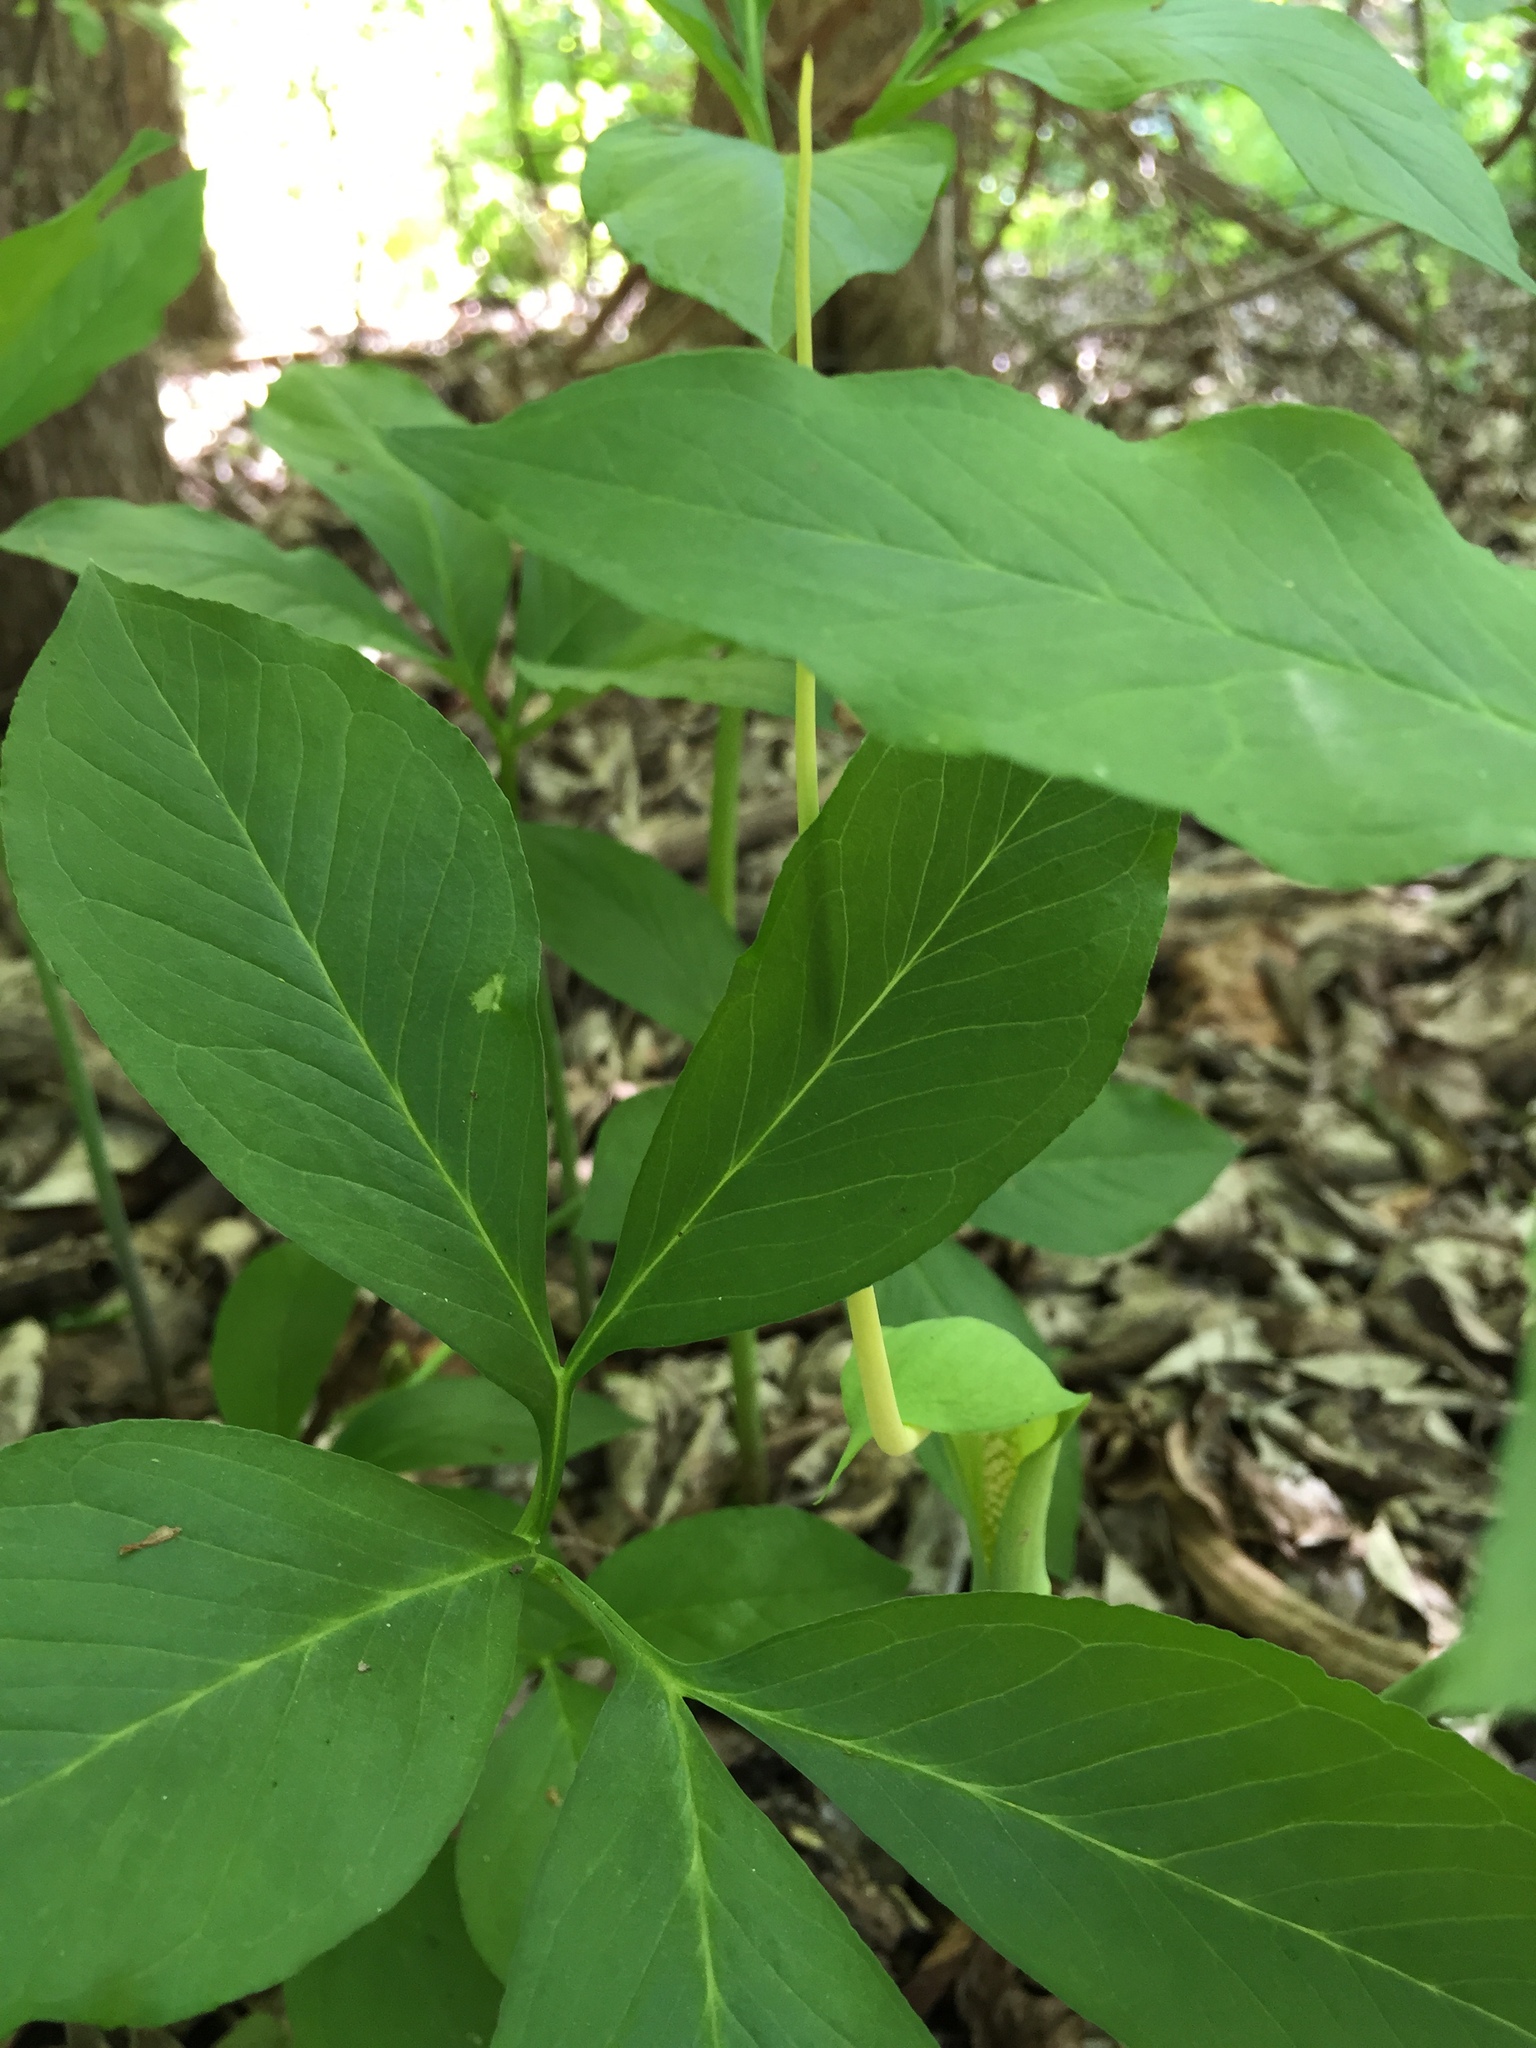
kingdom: Plantae
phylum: Tracheophyta
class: Liliopsida
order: Alismatales
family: Araceae
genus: Arisaema
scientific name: Arisaema dracontium
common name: Dragon-arum
